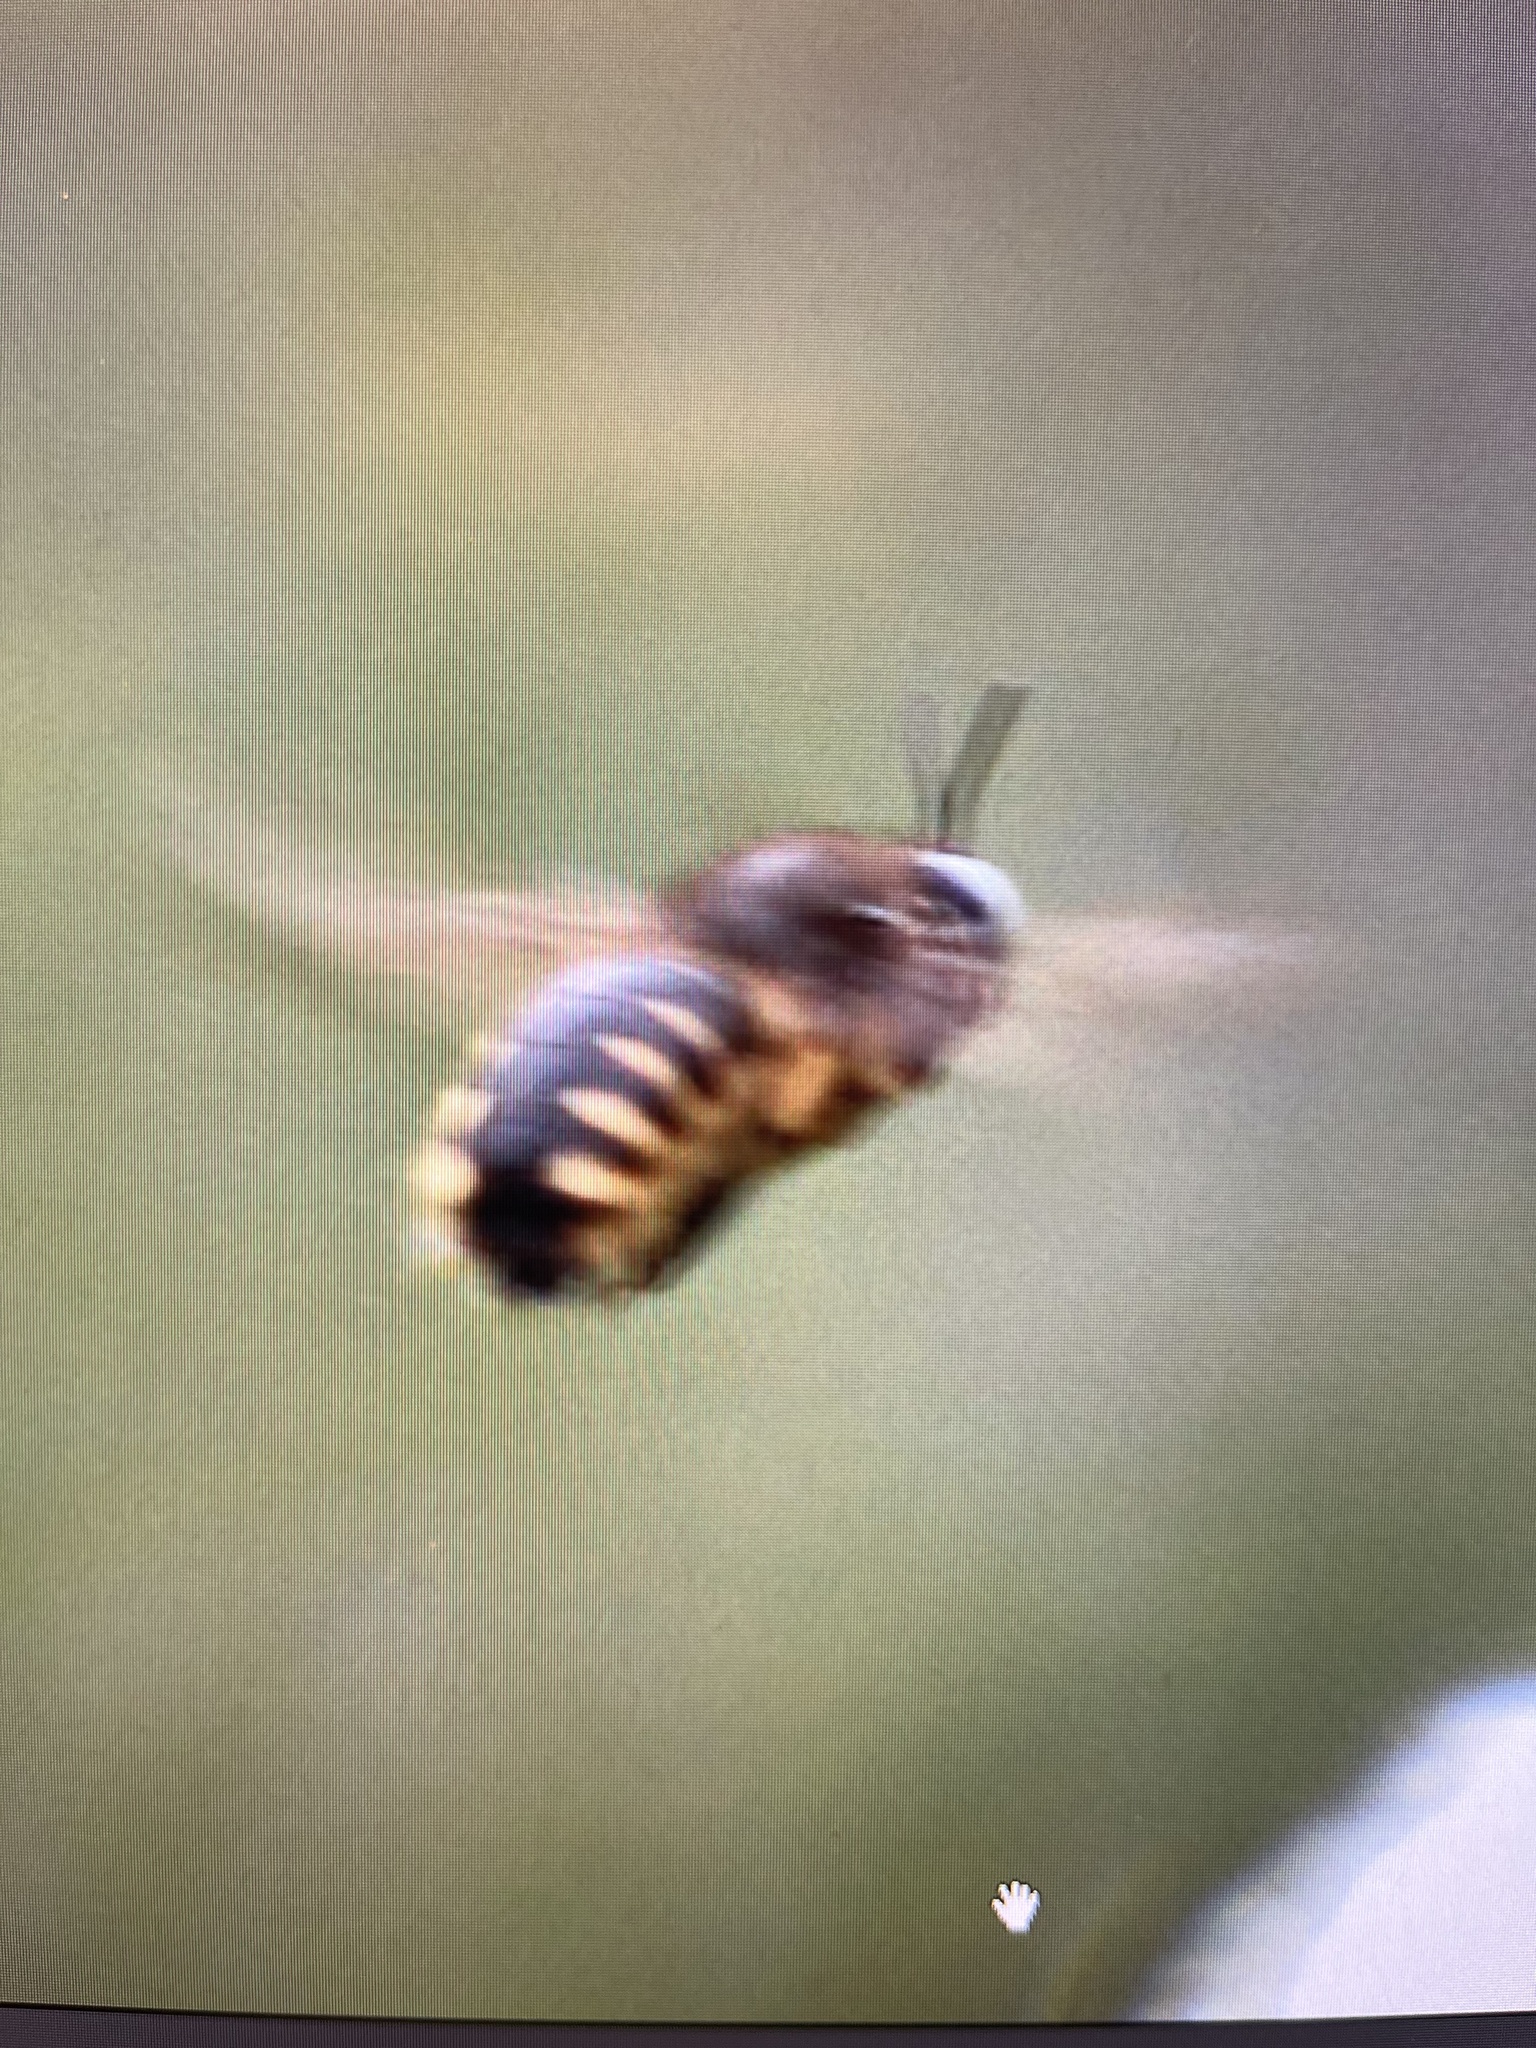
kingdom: Animalia
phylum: Arthropoda
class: Insecta
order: Hymenoptera
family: Apidae
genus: Xylocopa
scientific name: Xylocopa tabaniformis
